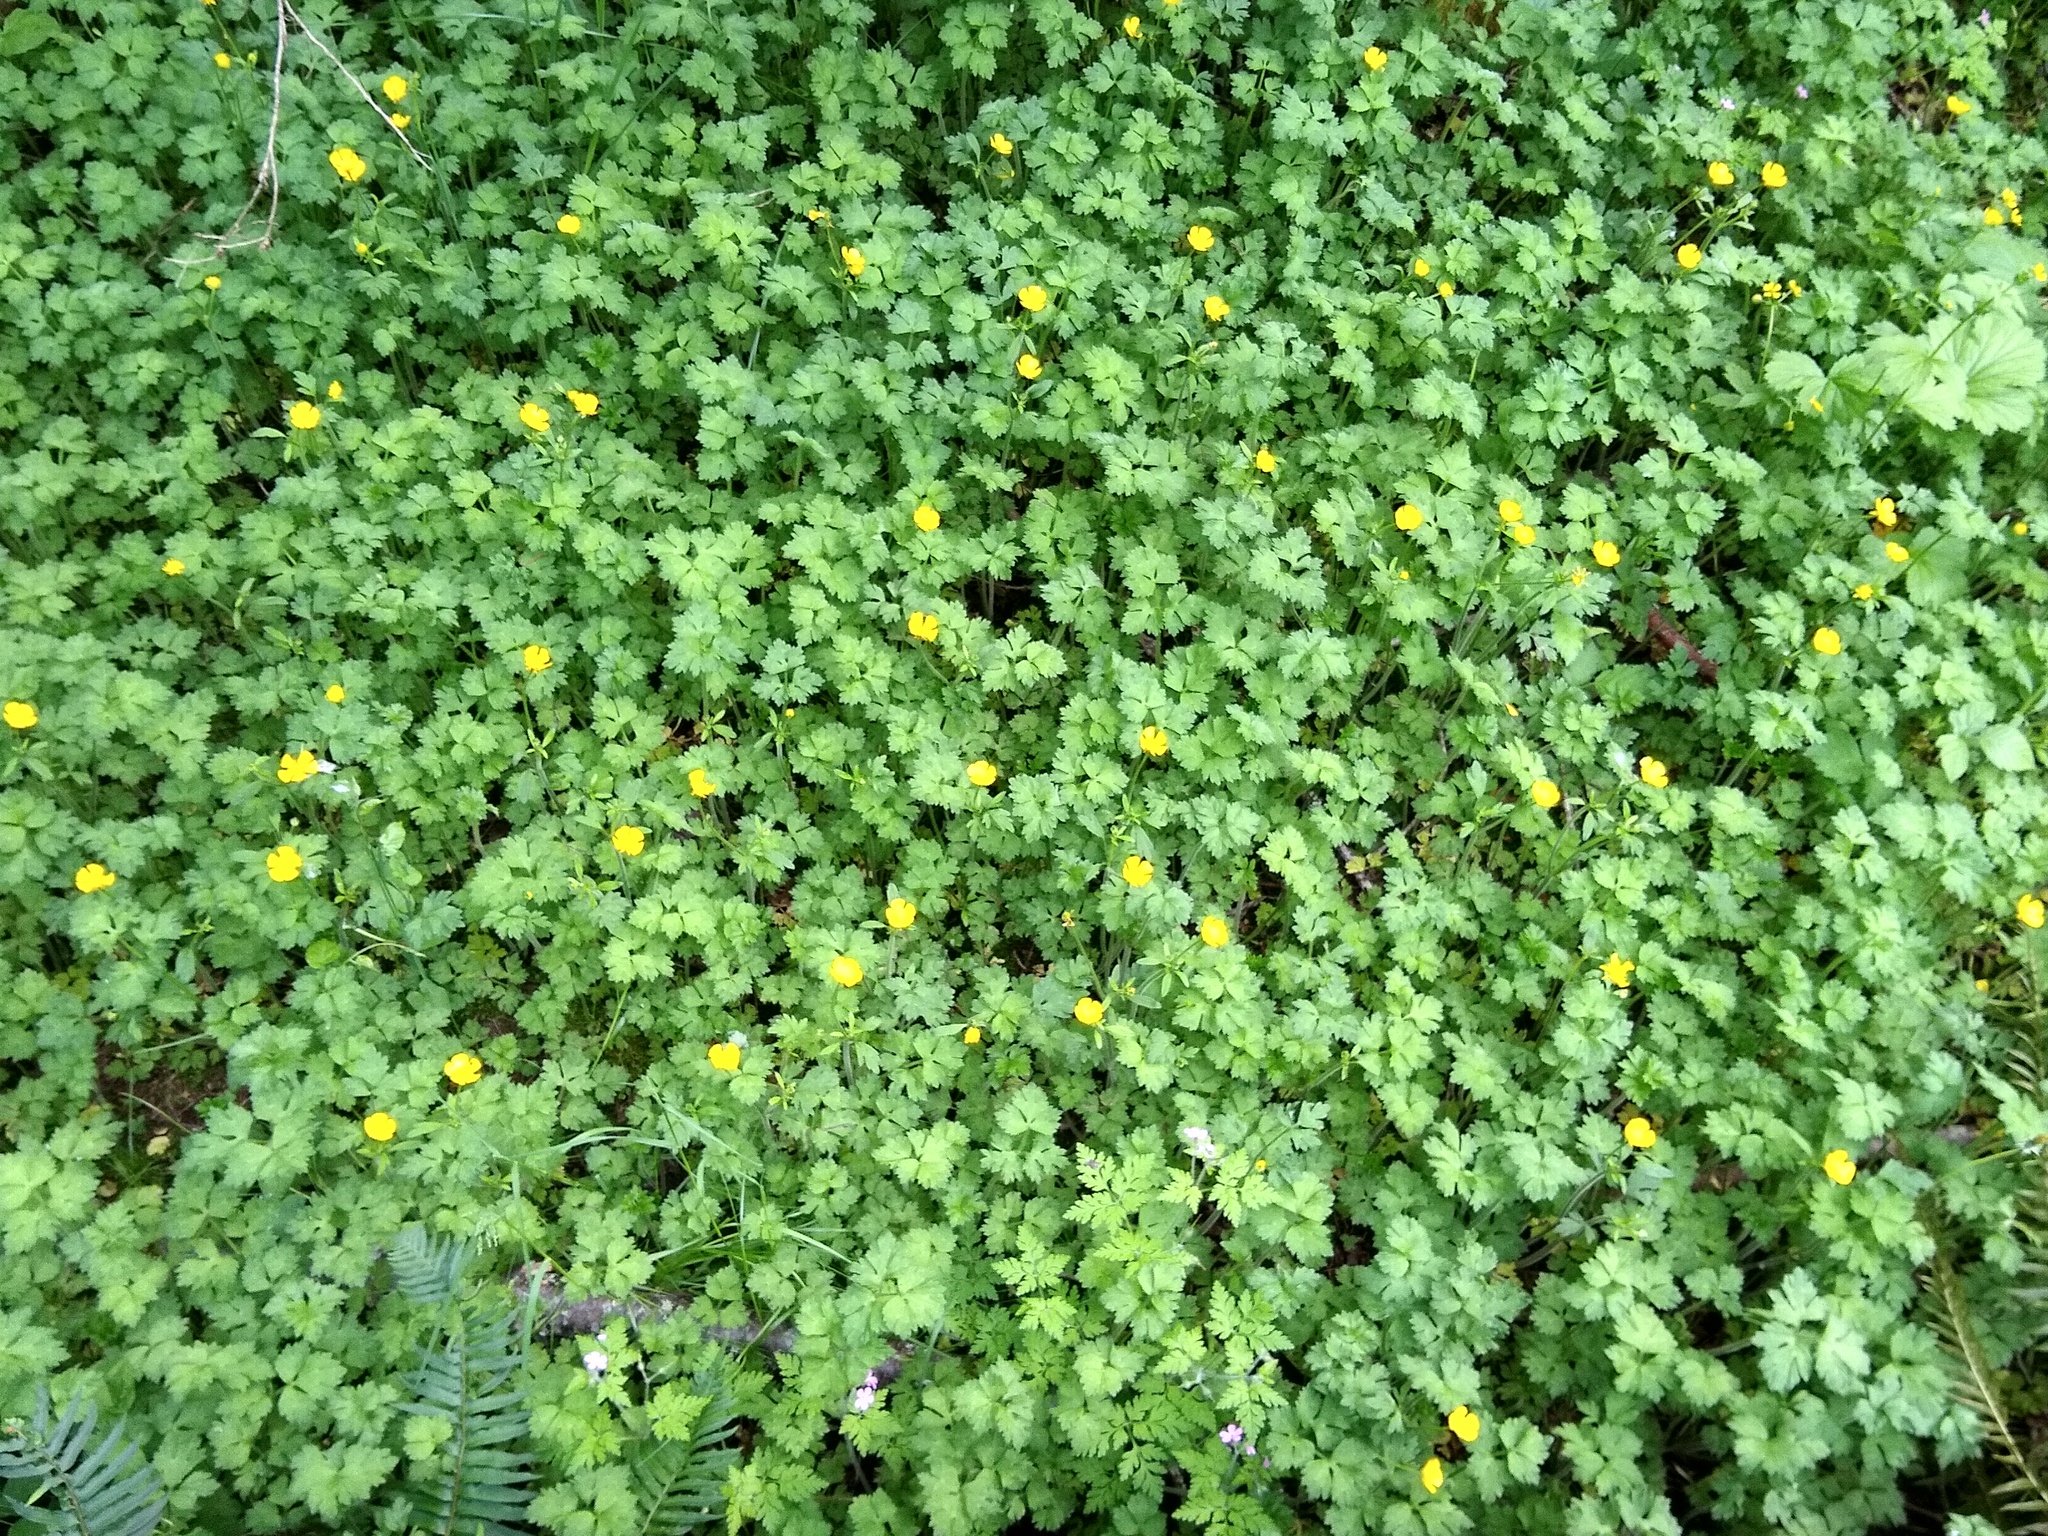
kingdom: Plantae
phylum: Tracheophyta
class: Magnoliopsida
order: Ranunculales
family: Ranunculaceae
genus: Ranunculus
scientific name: Ranunculus repens
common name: Creeping buttercup
